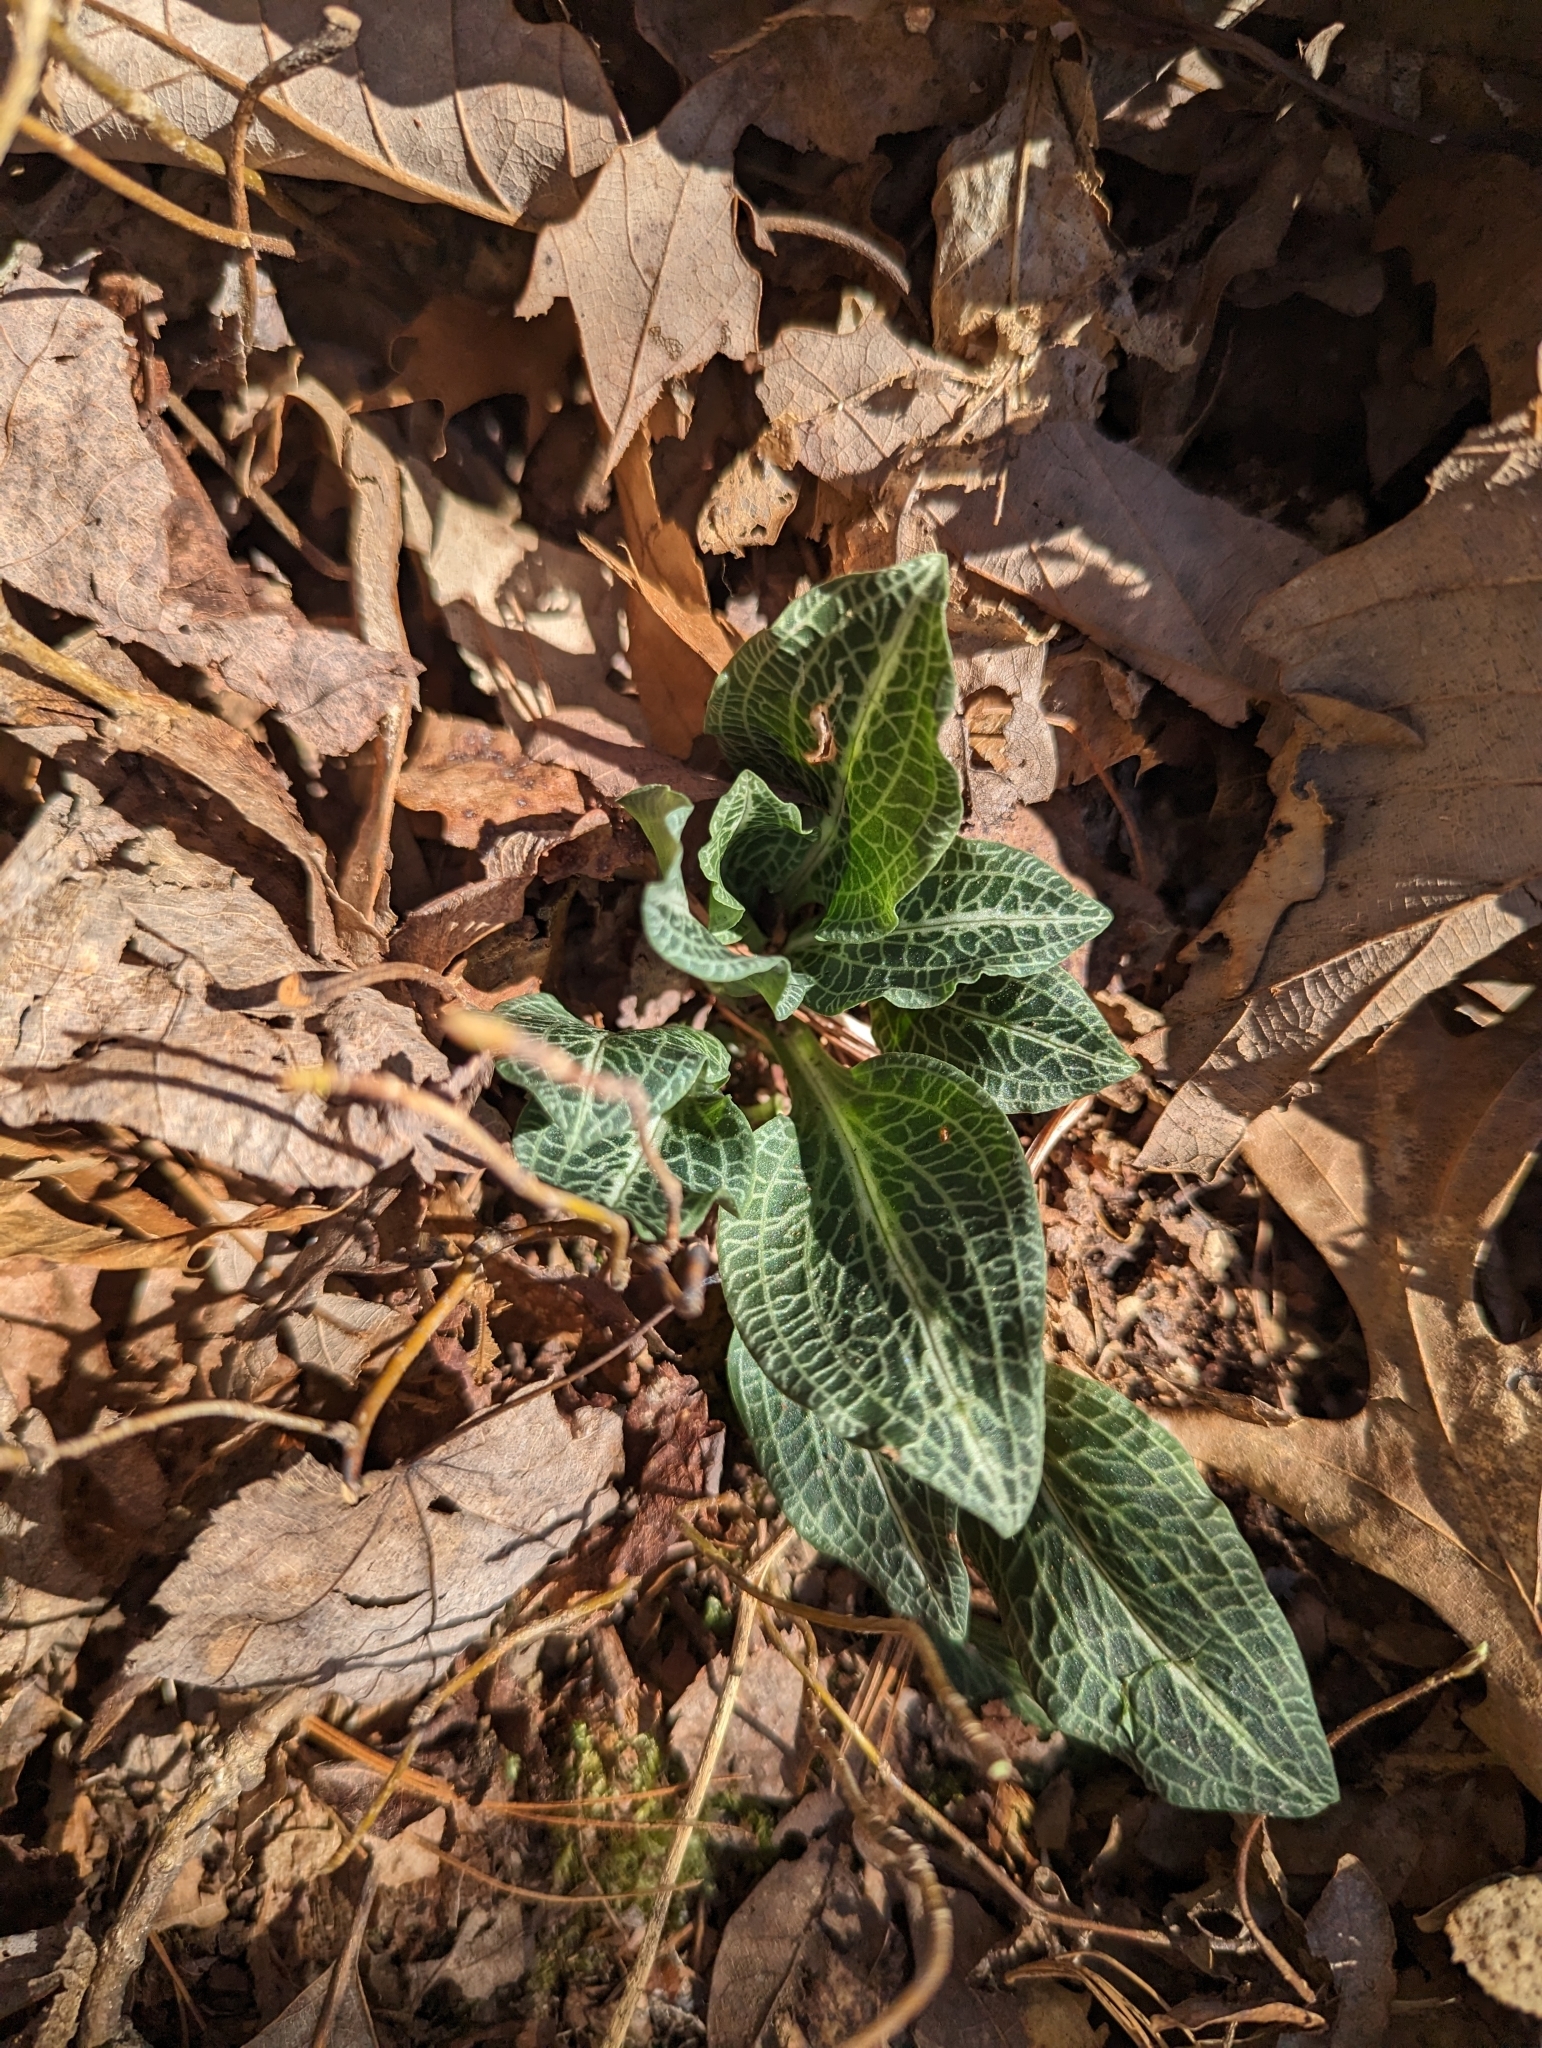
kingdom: Plantae
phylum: Tracheophyta
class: Liliopsida
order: Asparagales
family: Orchidaceae
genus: Goodyera
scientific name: Goodyera pubescens
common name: Downy rattlesnake-plantain
